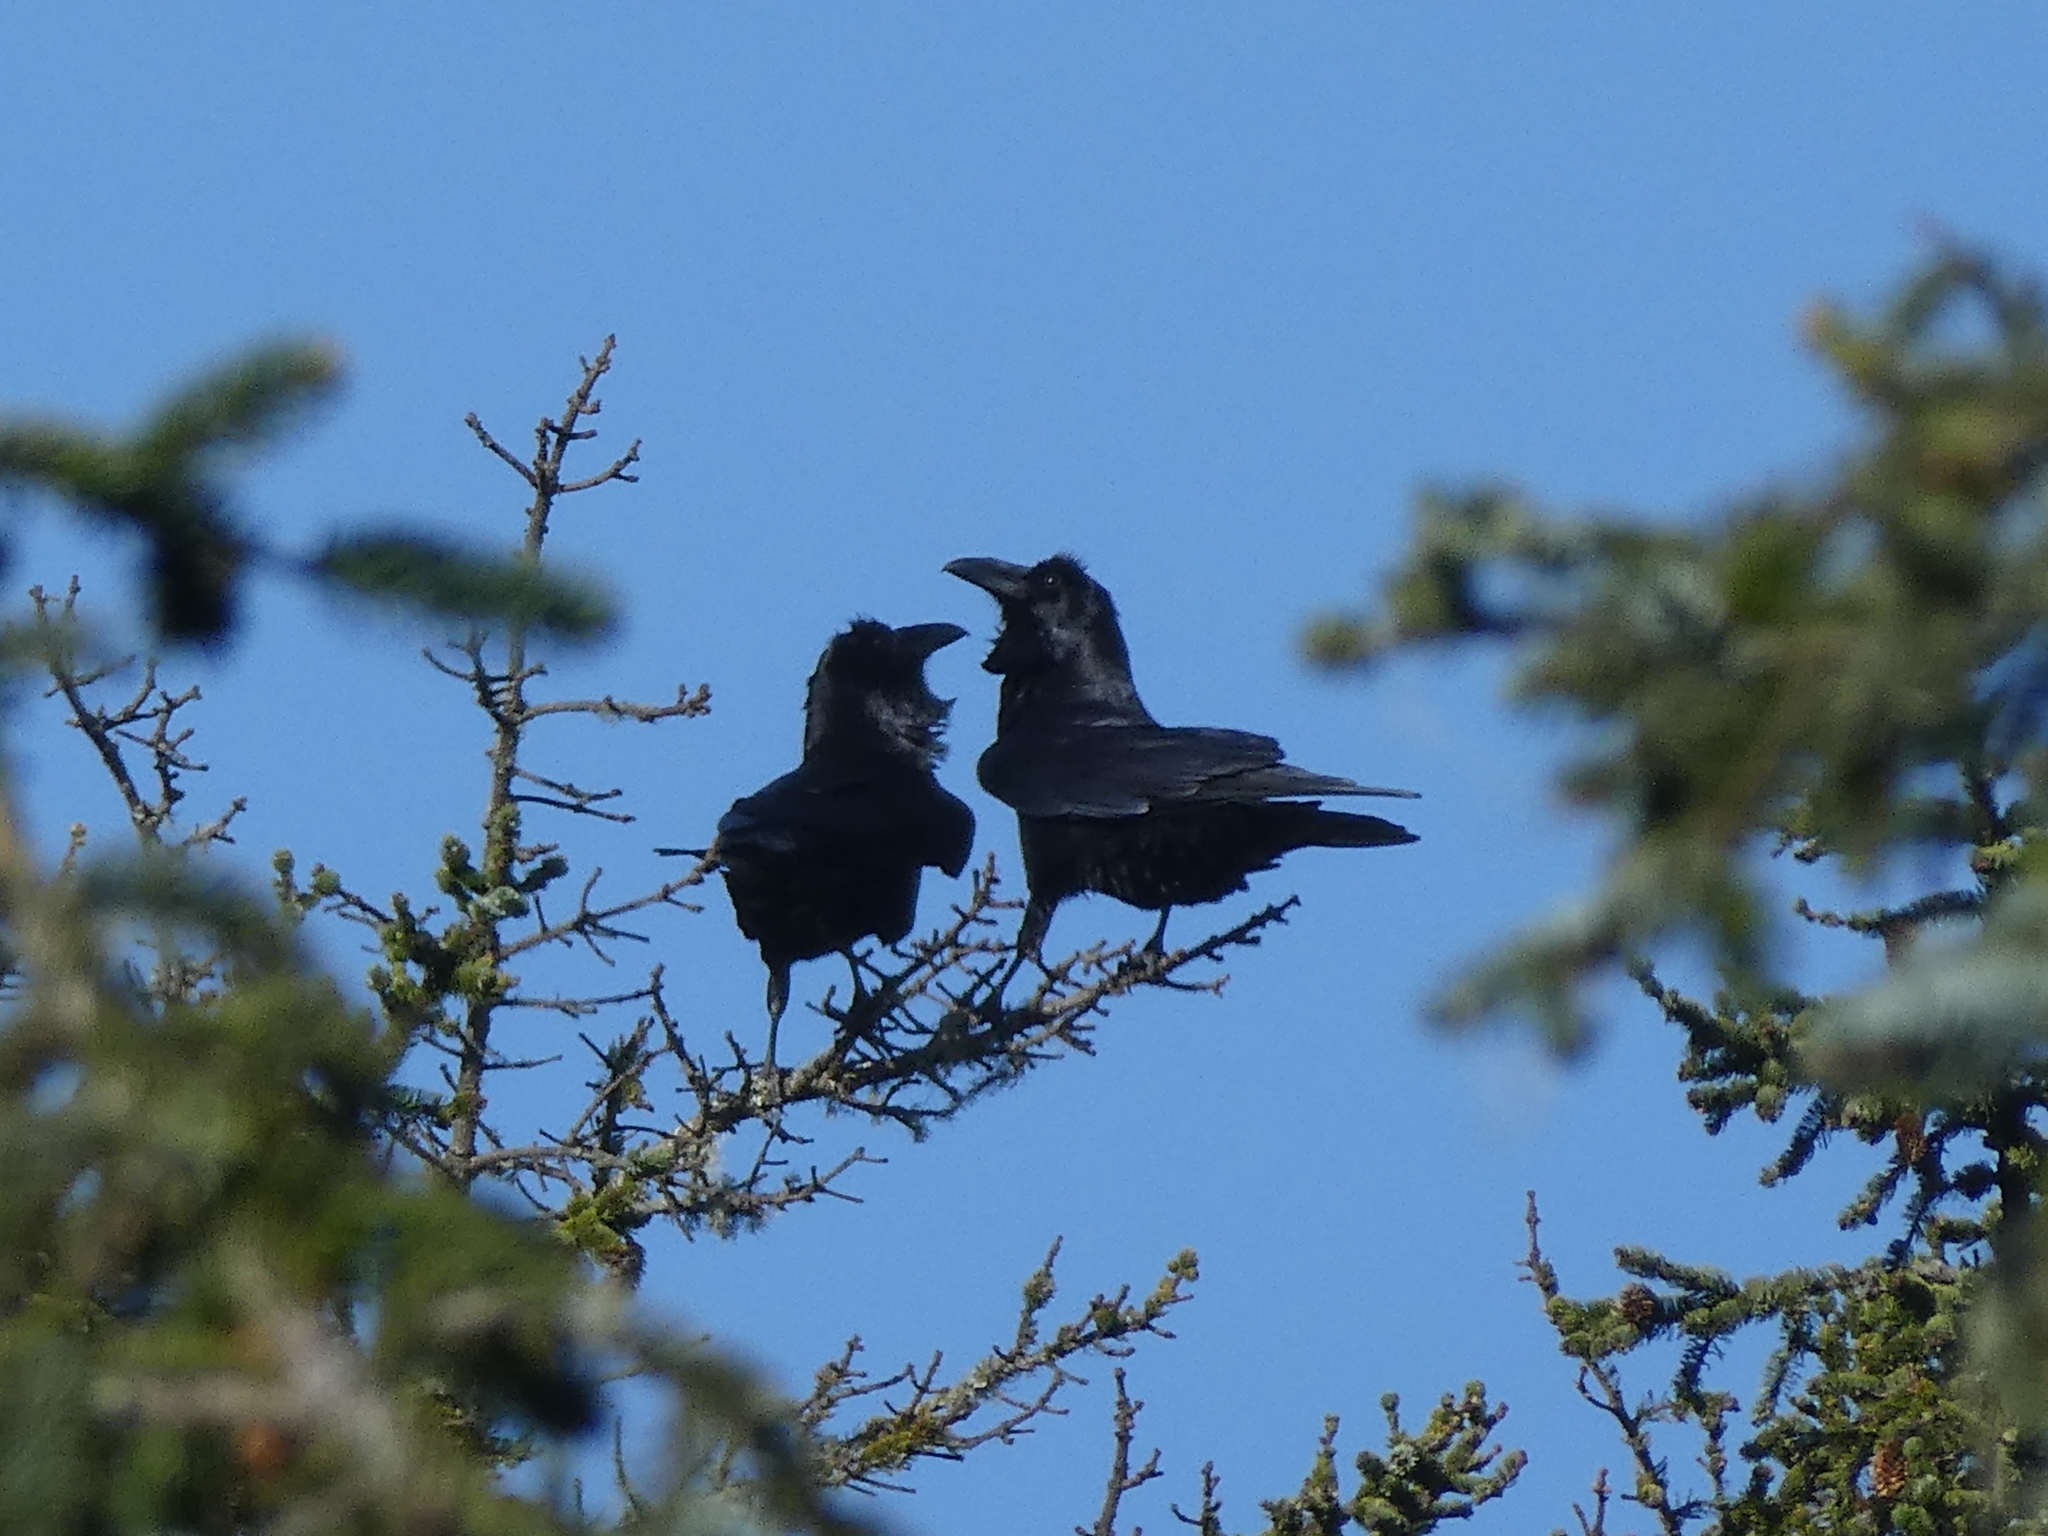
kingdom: Animalia
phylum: Chordata
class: Aves
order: Passeriformes
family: Corvidae
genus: Corvus
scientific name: Corvus corax
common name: Common raven
